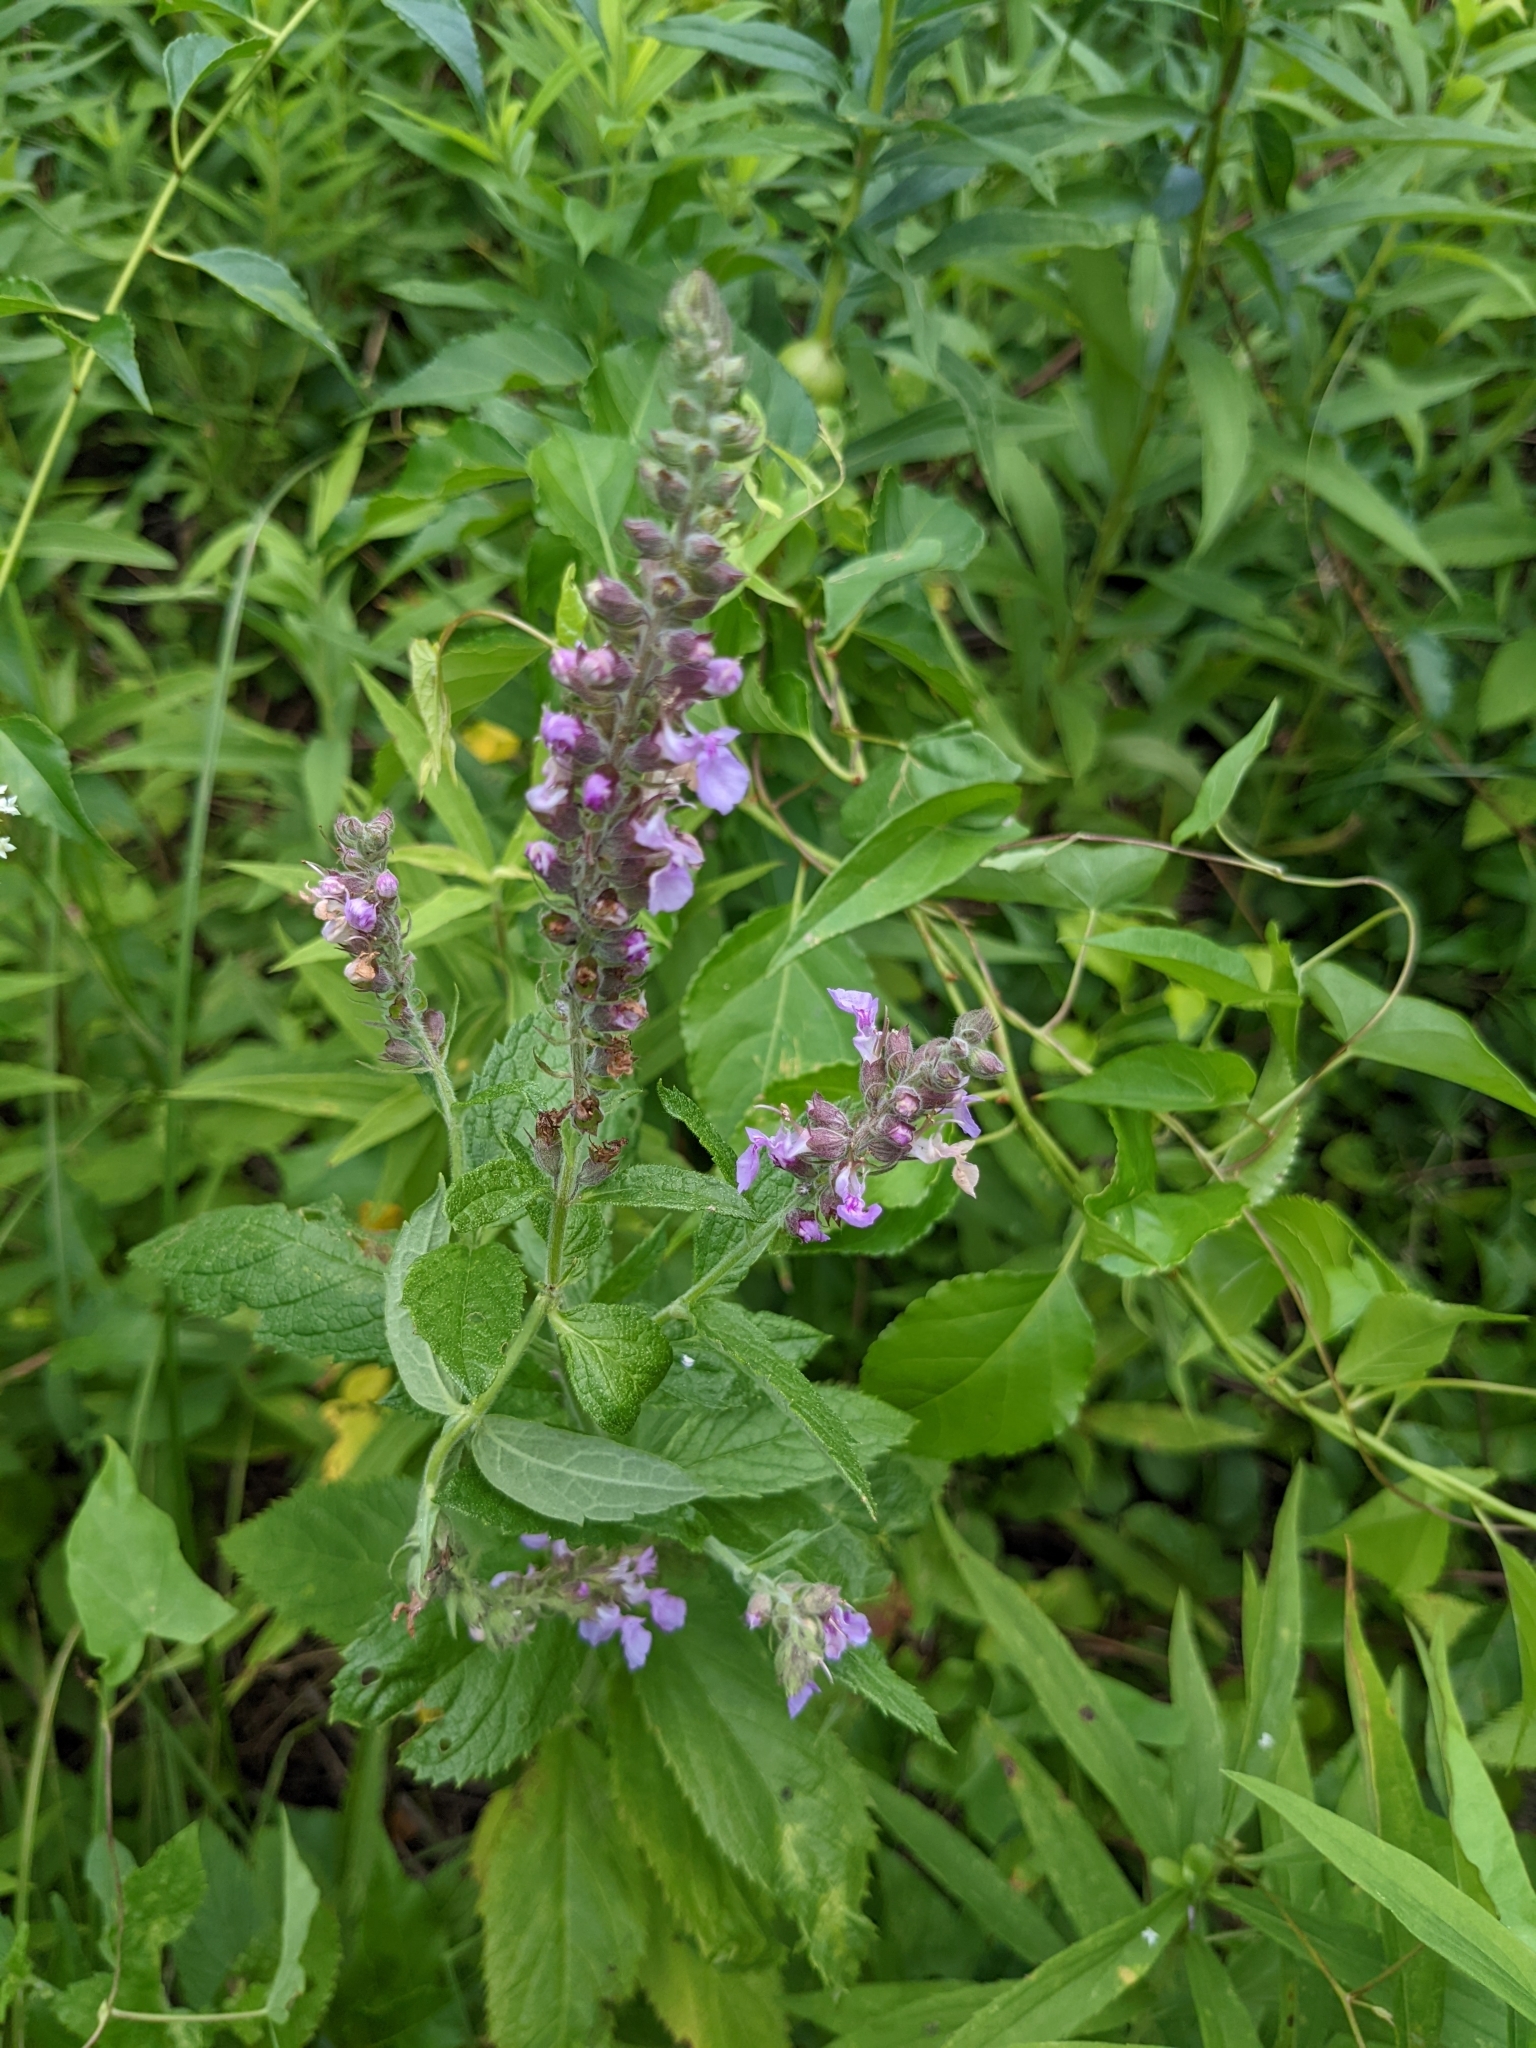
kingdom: Plantae
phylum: Tracheophyta
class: Magnoliopsida
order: Lamiales
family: Lamiaceae
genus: Teucrium
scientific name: Teucrium canadense
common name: American germander
